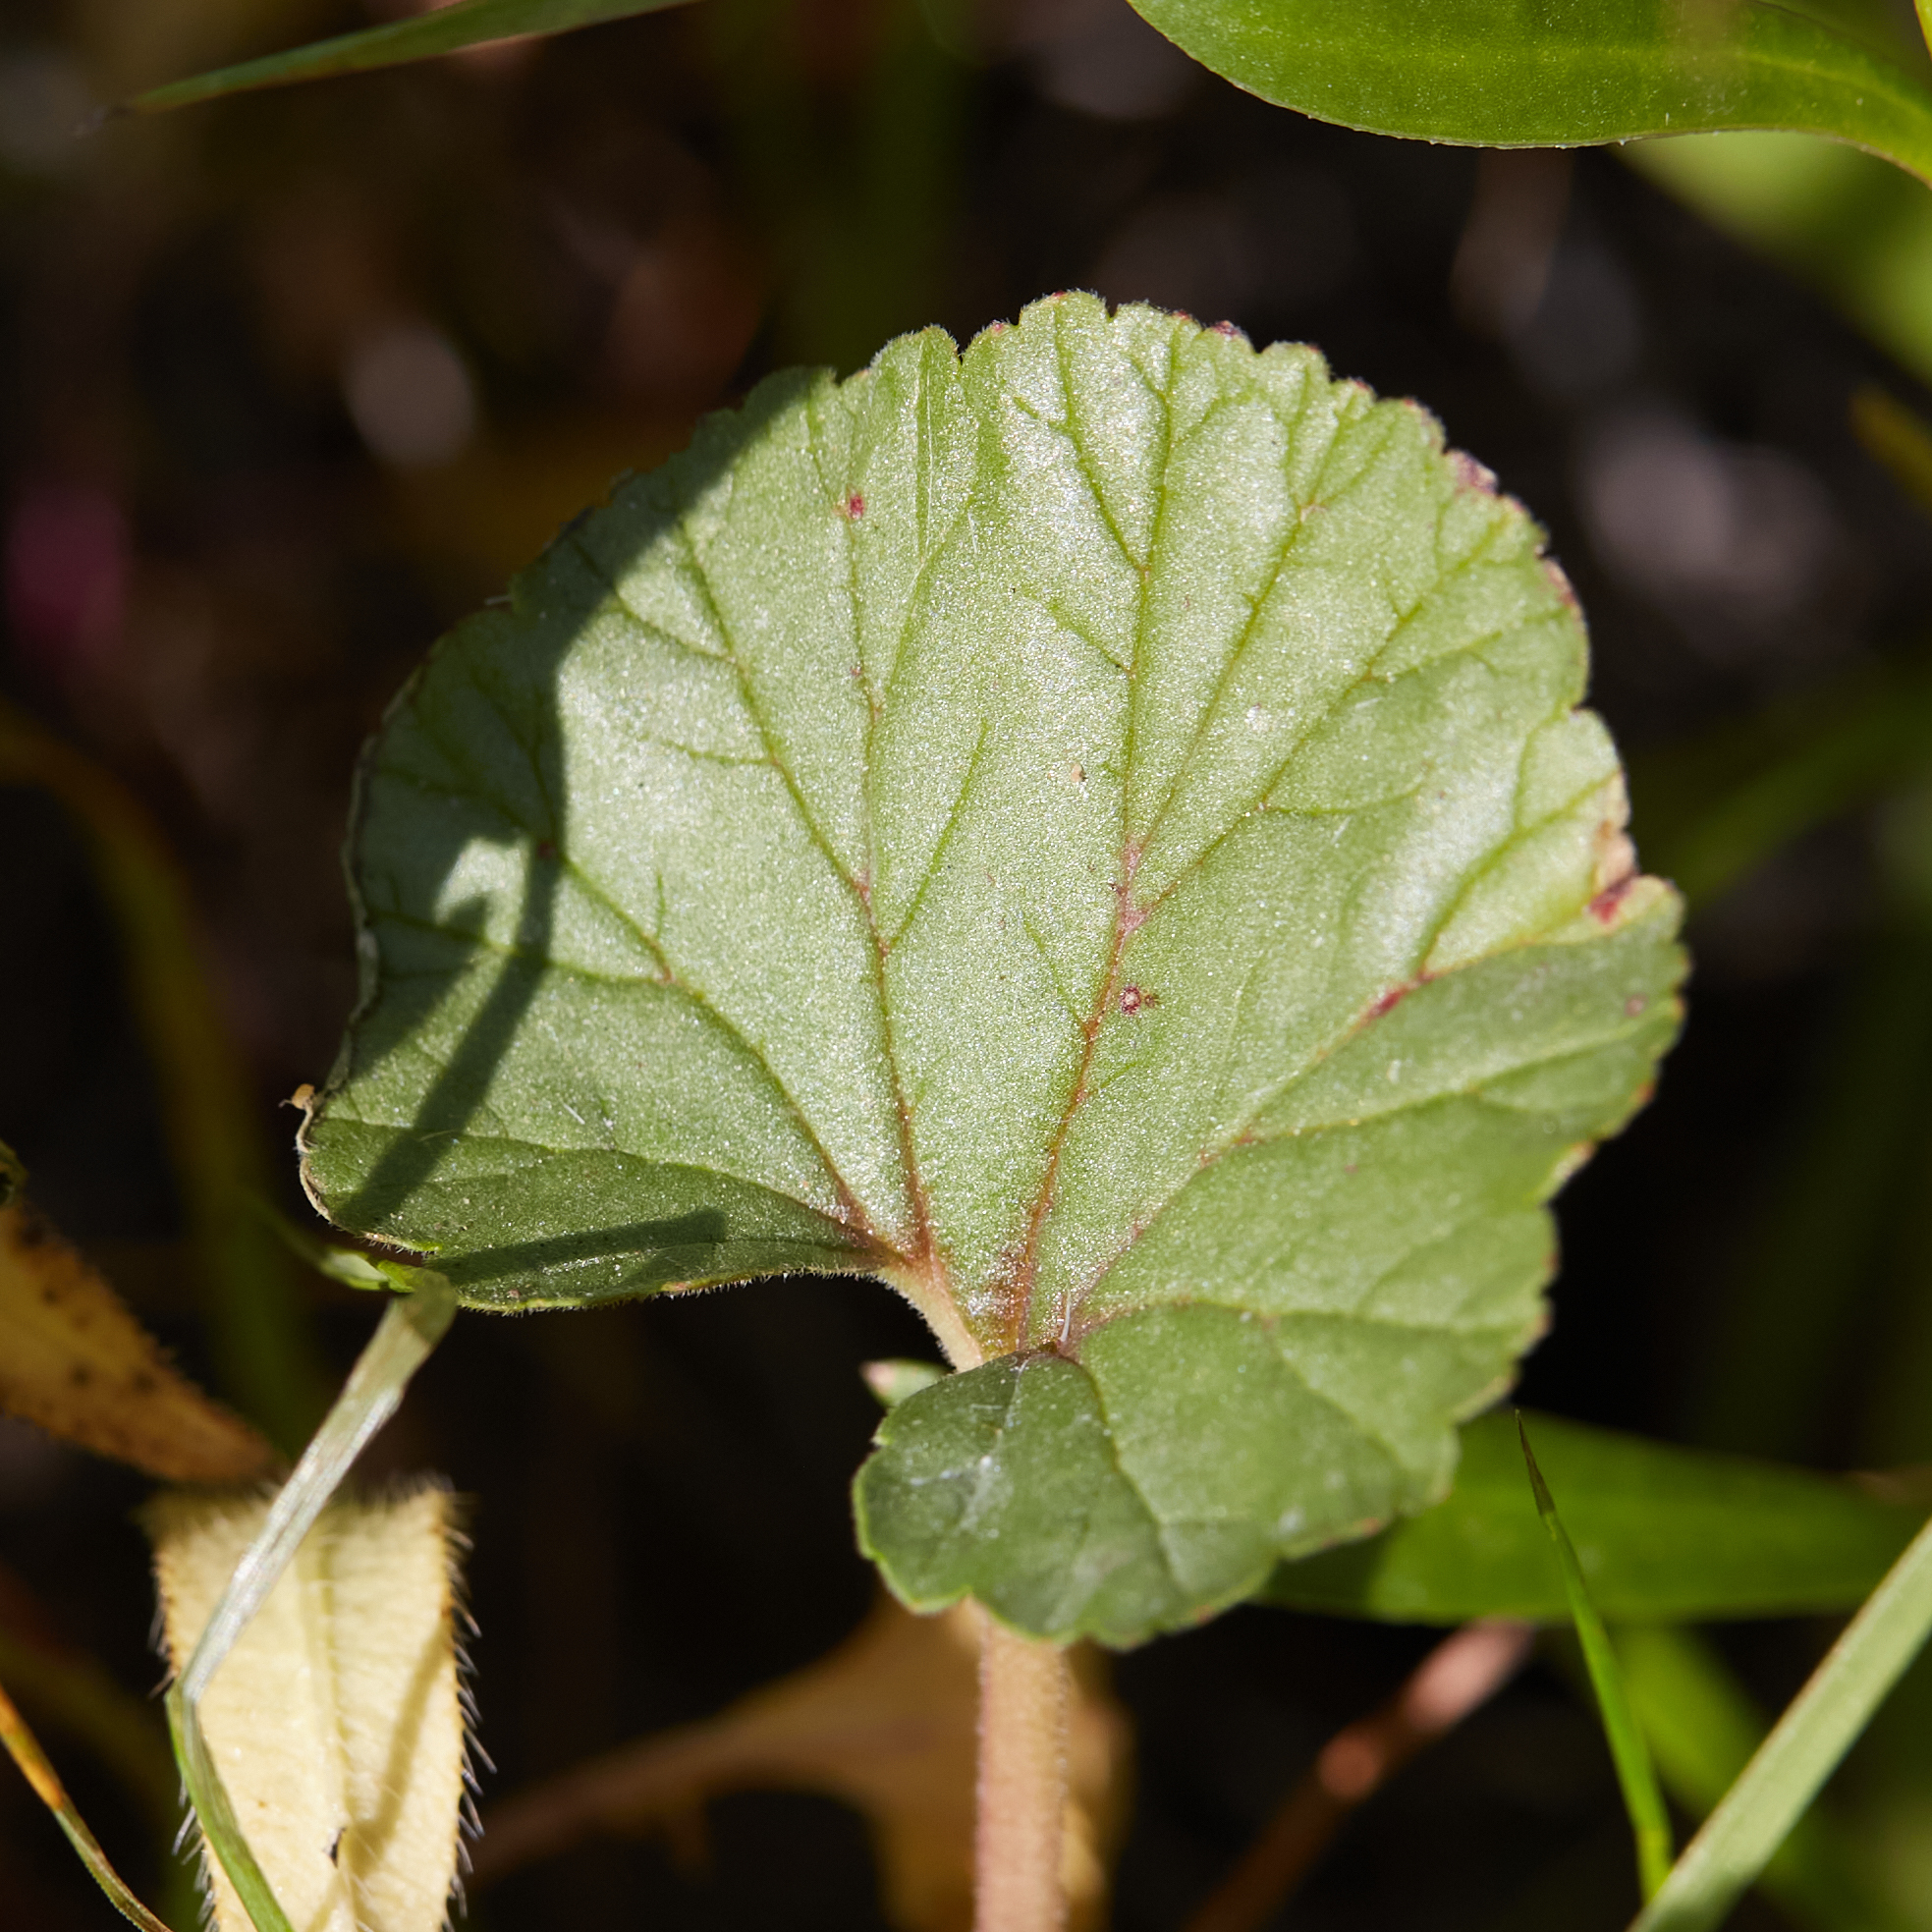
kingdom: Plantae
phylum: Tracheophyta
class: Magnoliopsida
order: Geraniales
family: Geraniaceae
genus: California
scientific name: California macrophylla
